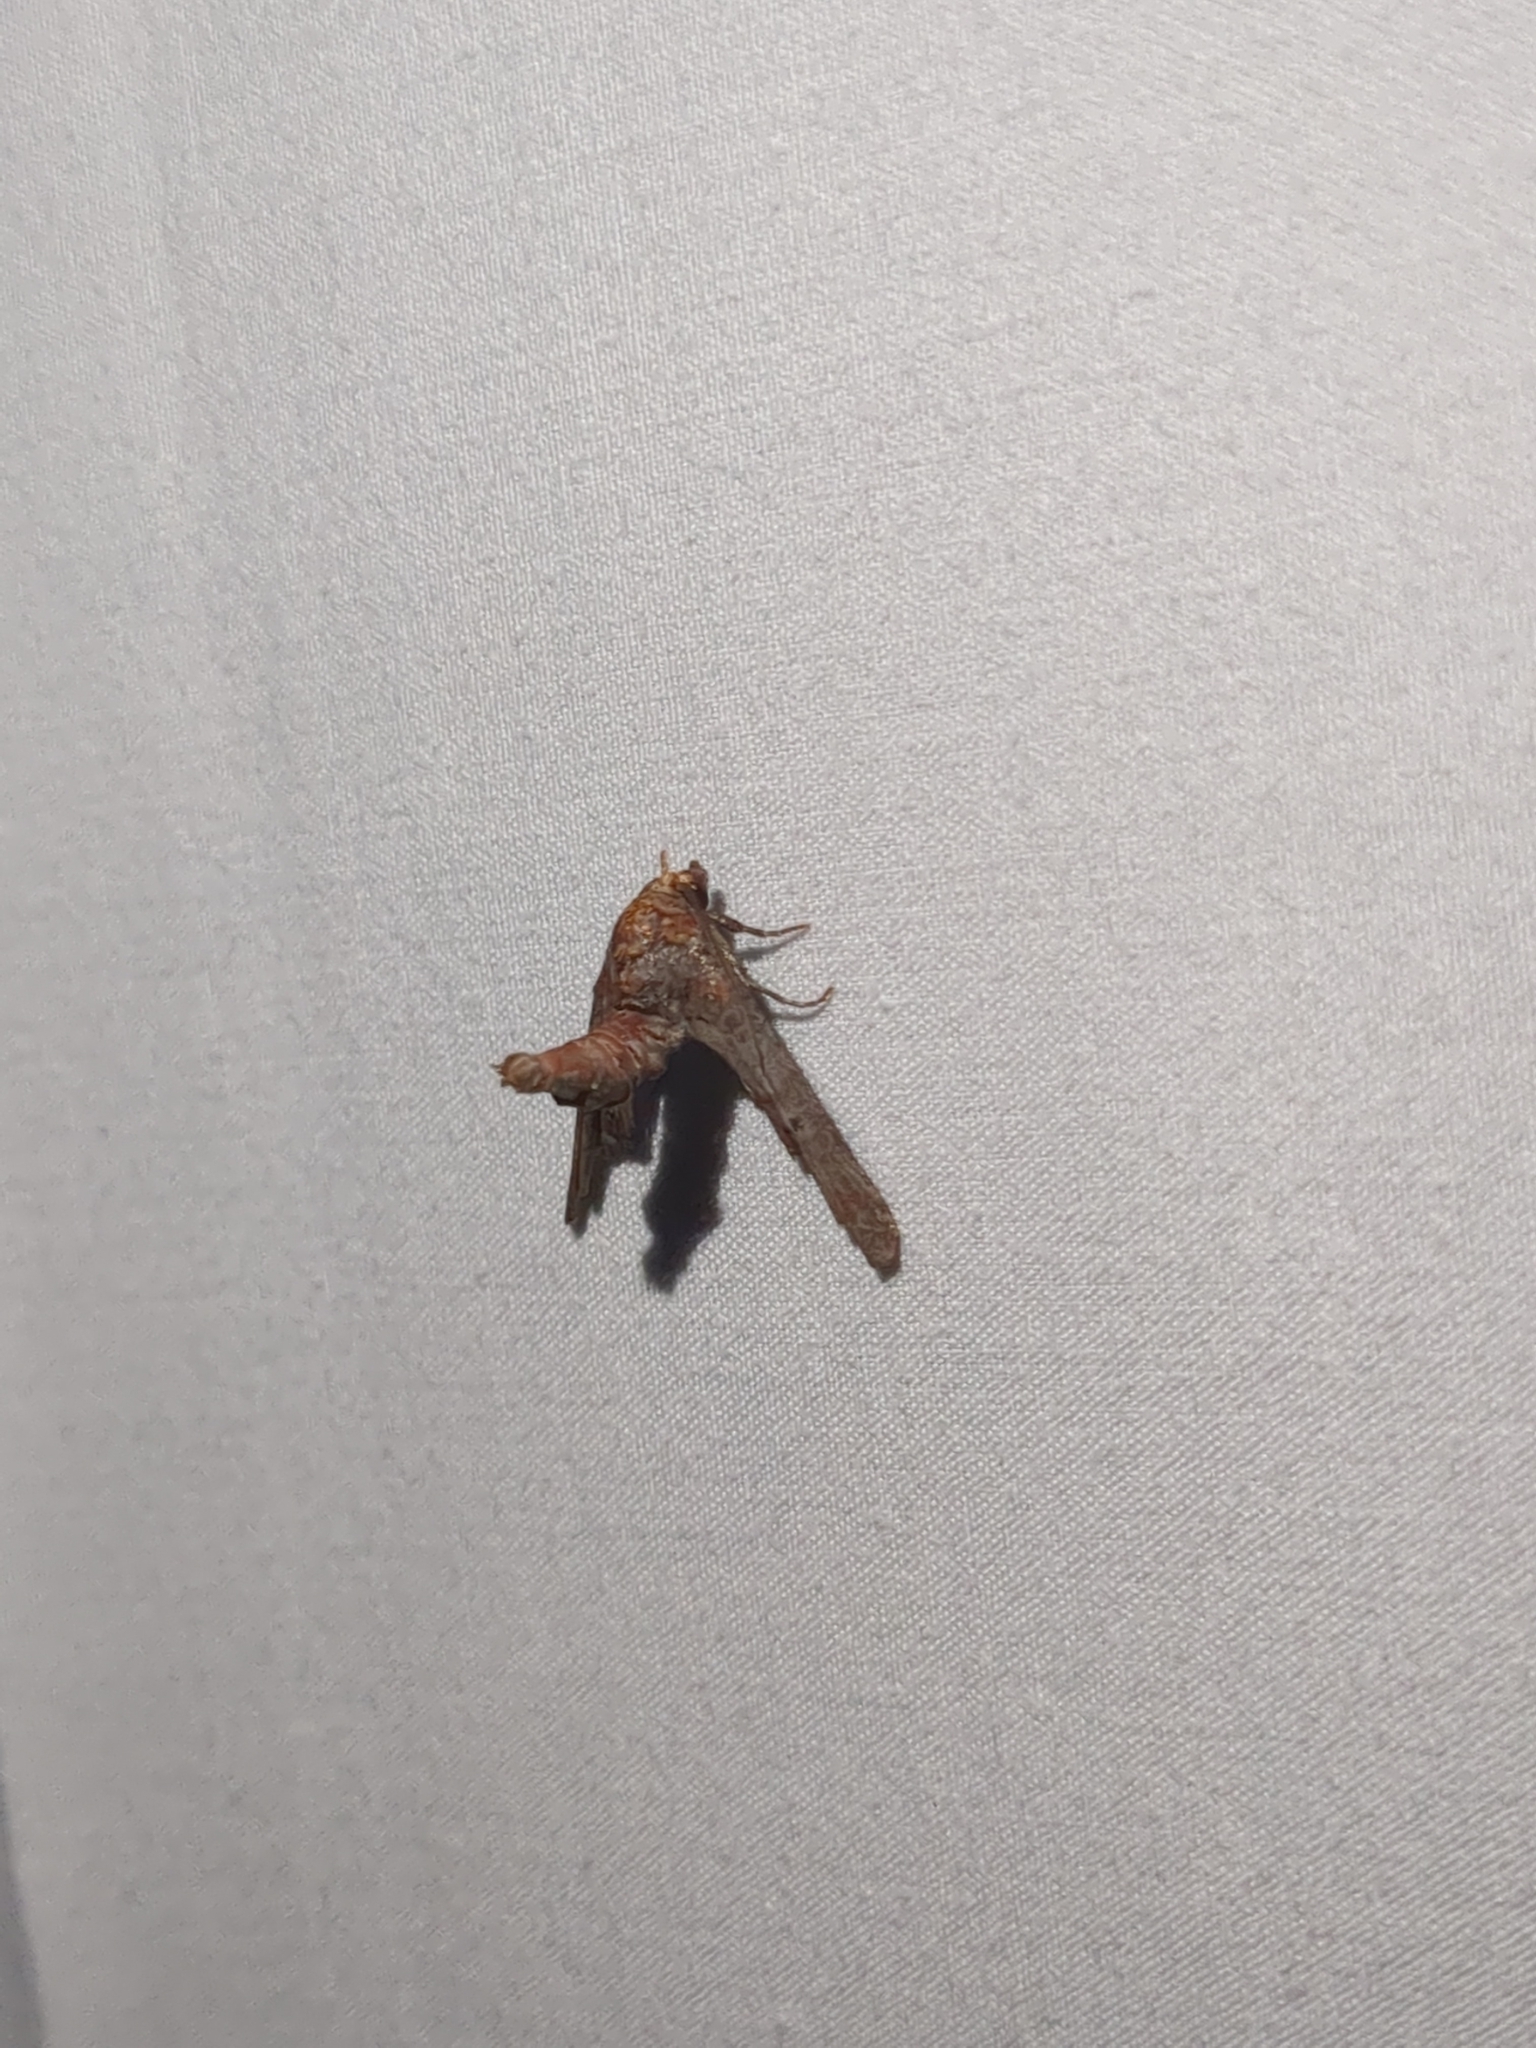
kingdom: Animalia
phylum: Arthropoda
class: Insecta
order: Lepidoptera
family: Euteliidae
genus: Marathyssa
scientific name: Marathyssa inficita
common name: Dark marathyssa moth
